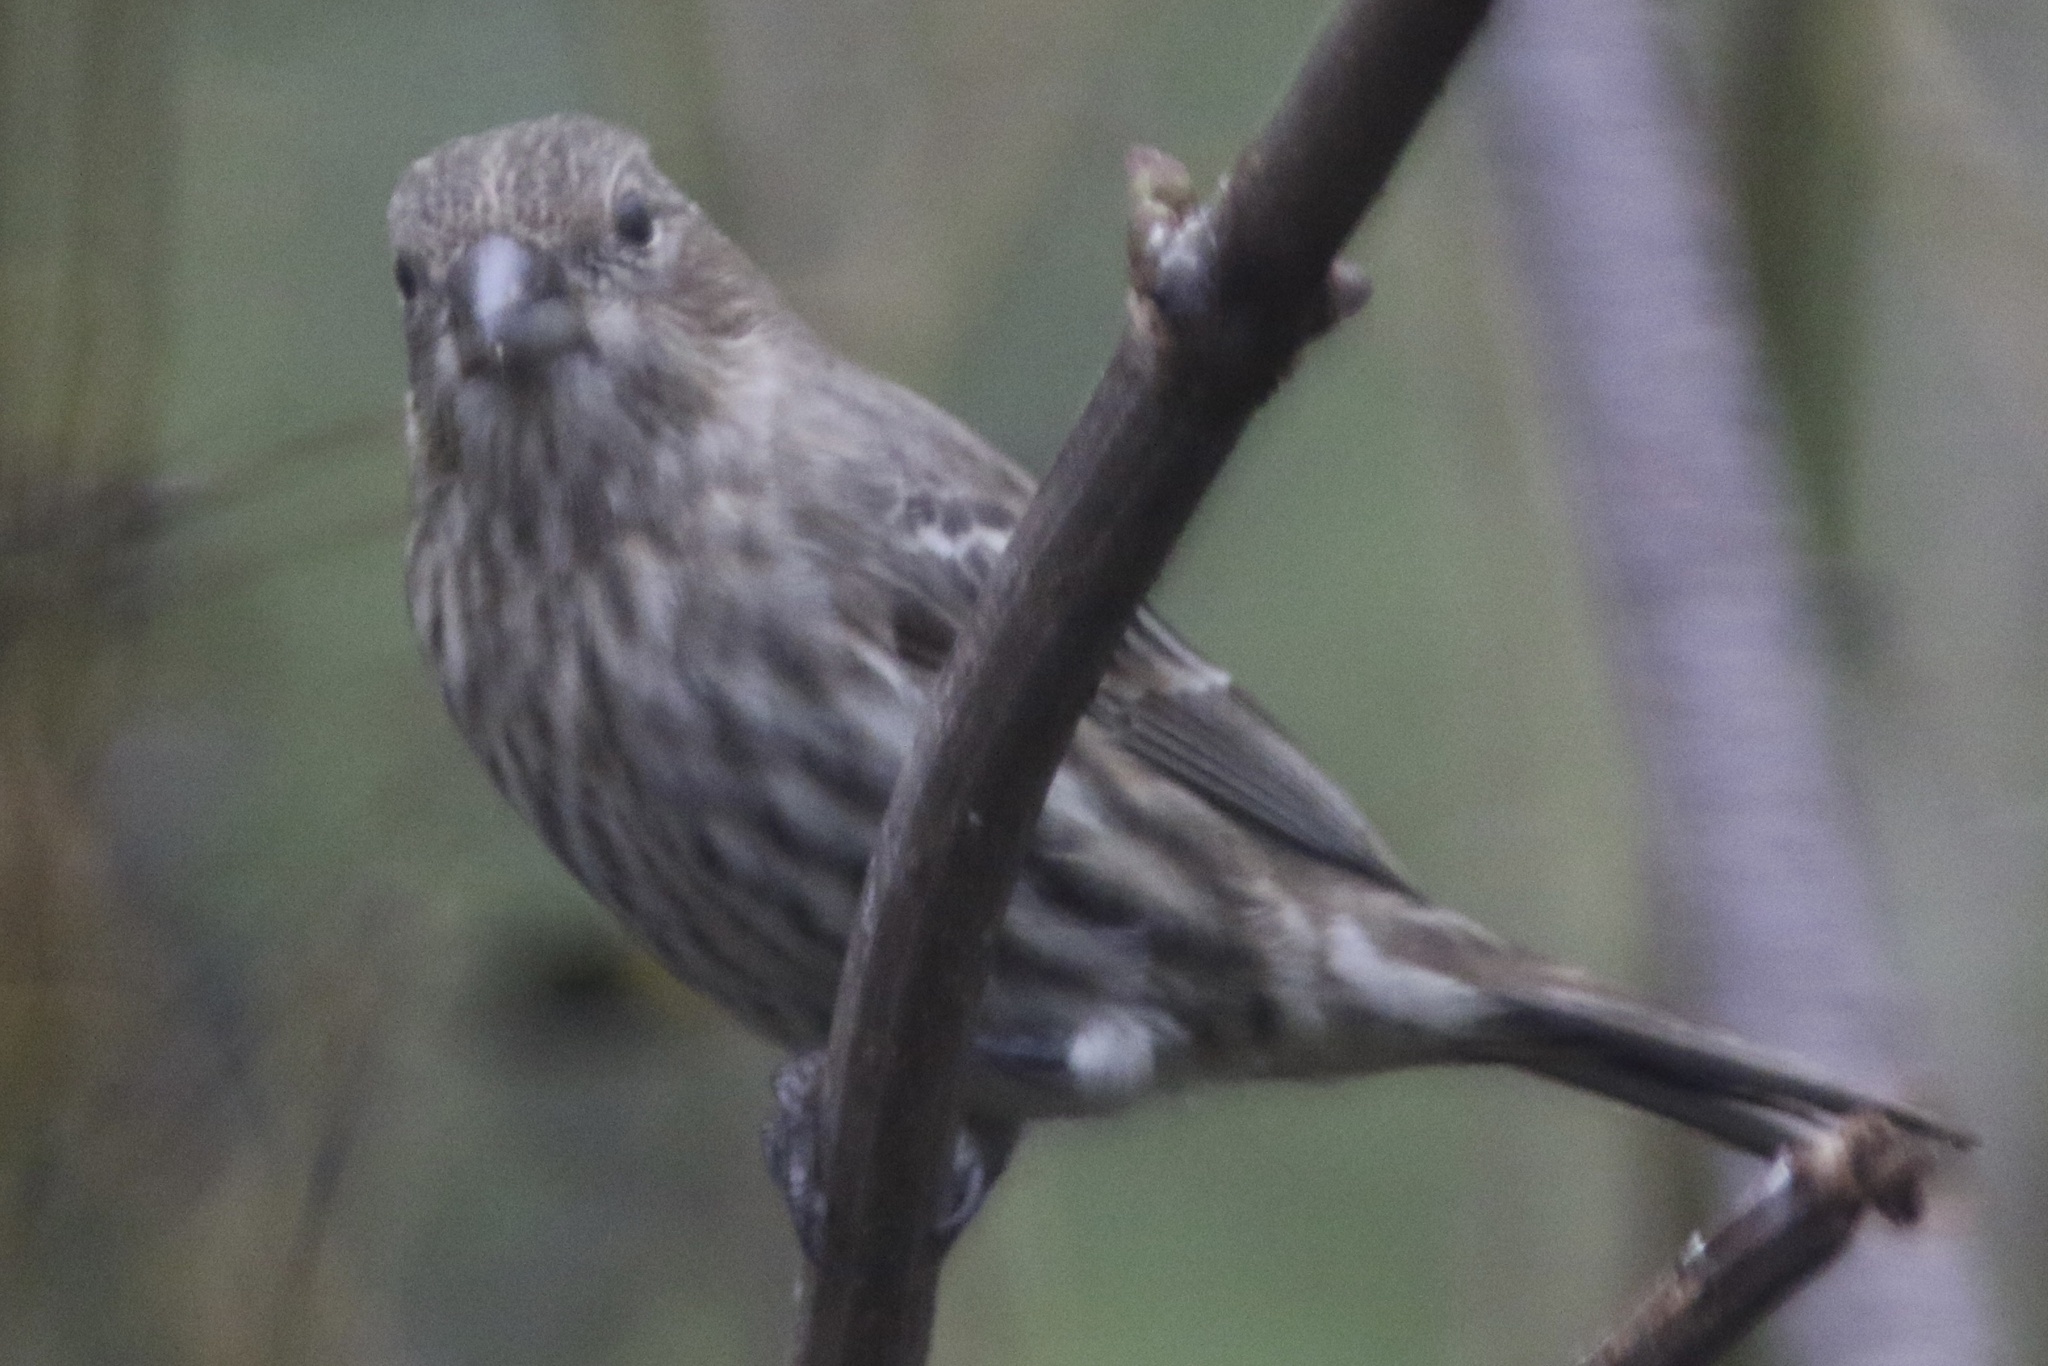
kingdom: Animalia
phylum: Chordata
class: Aves
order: Passeriformes
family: Fringillidae
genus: Haemorhous
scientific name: Haemorhous mexicanus
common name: House finch
